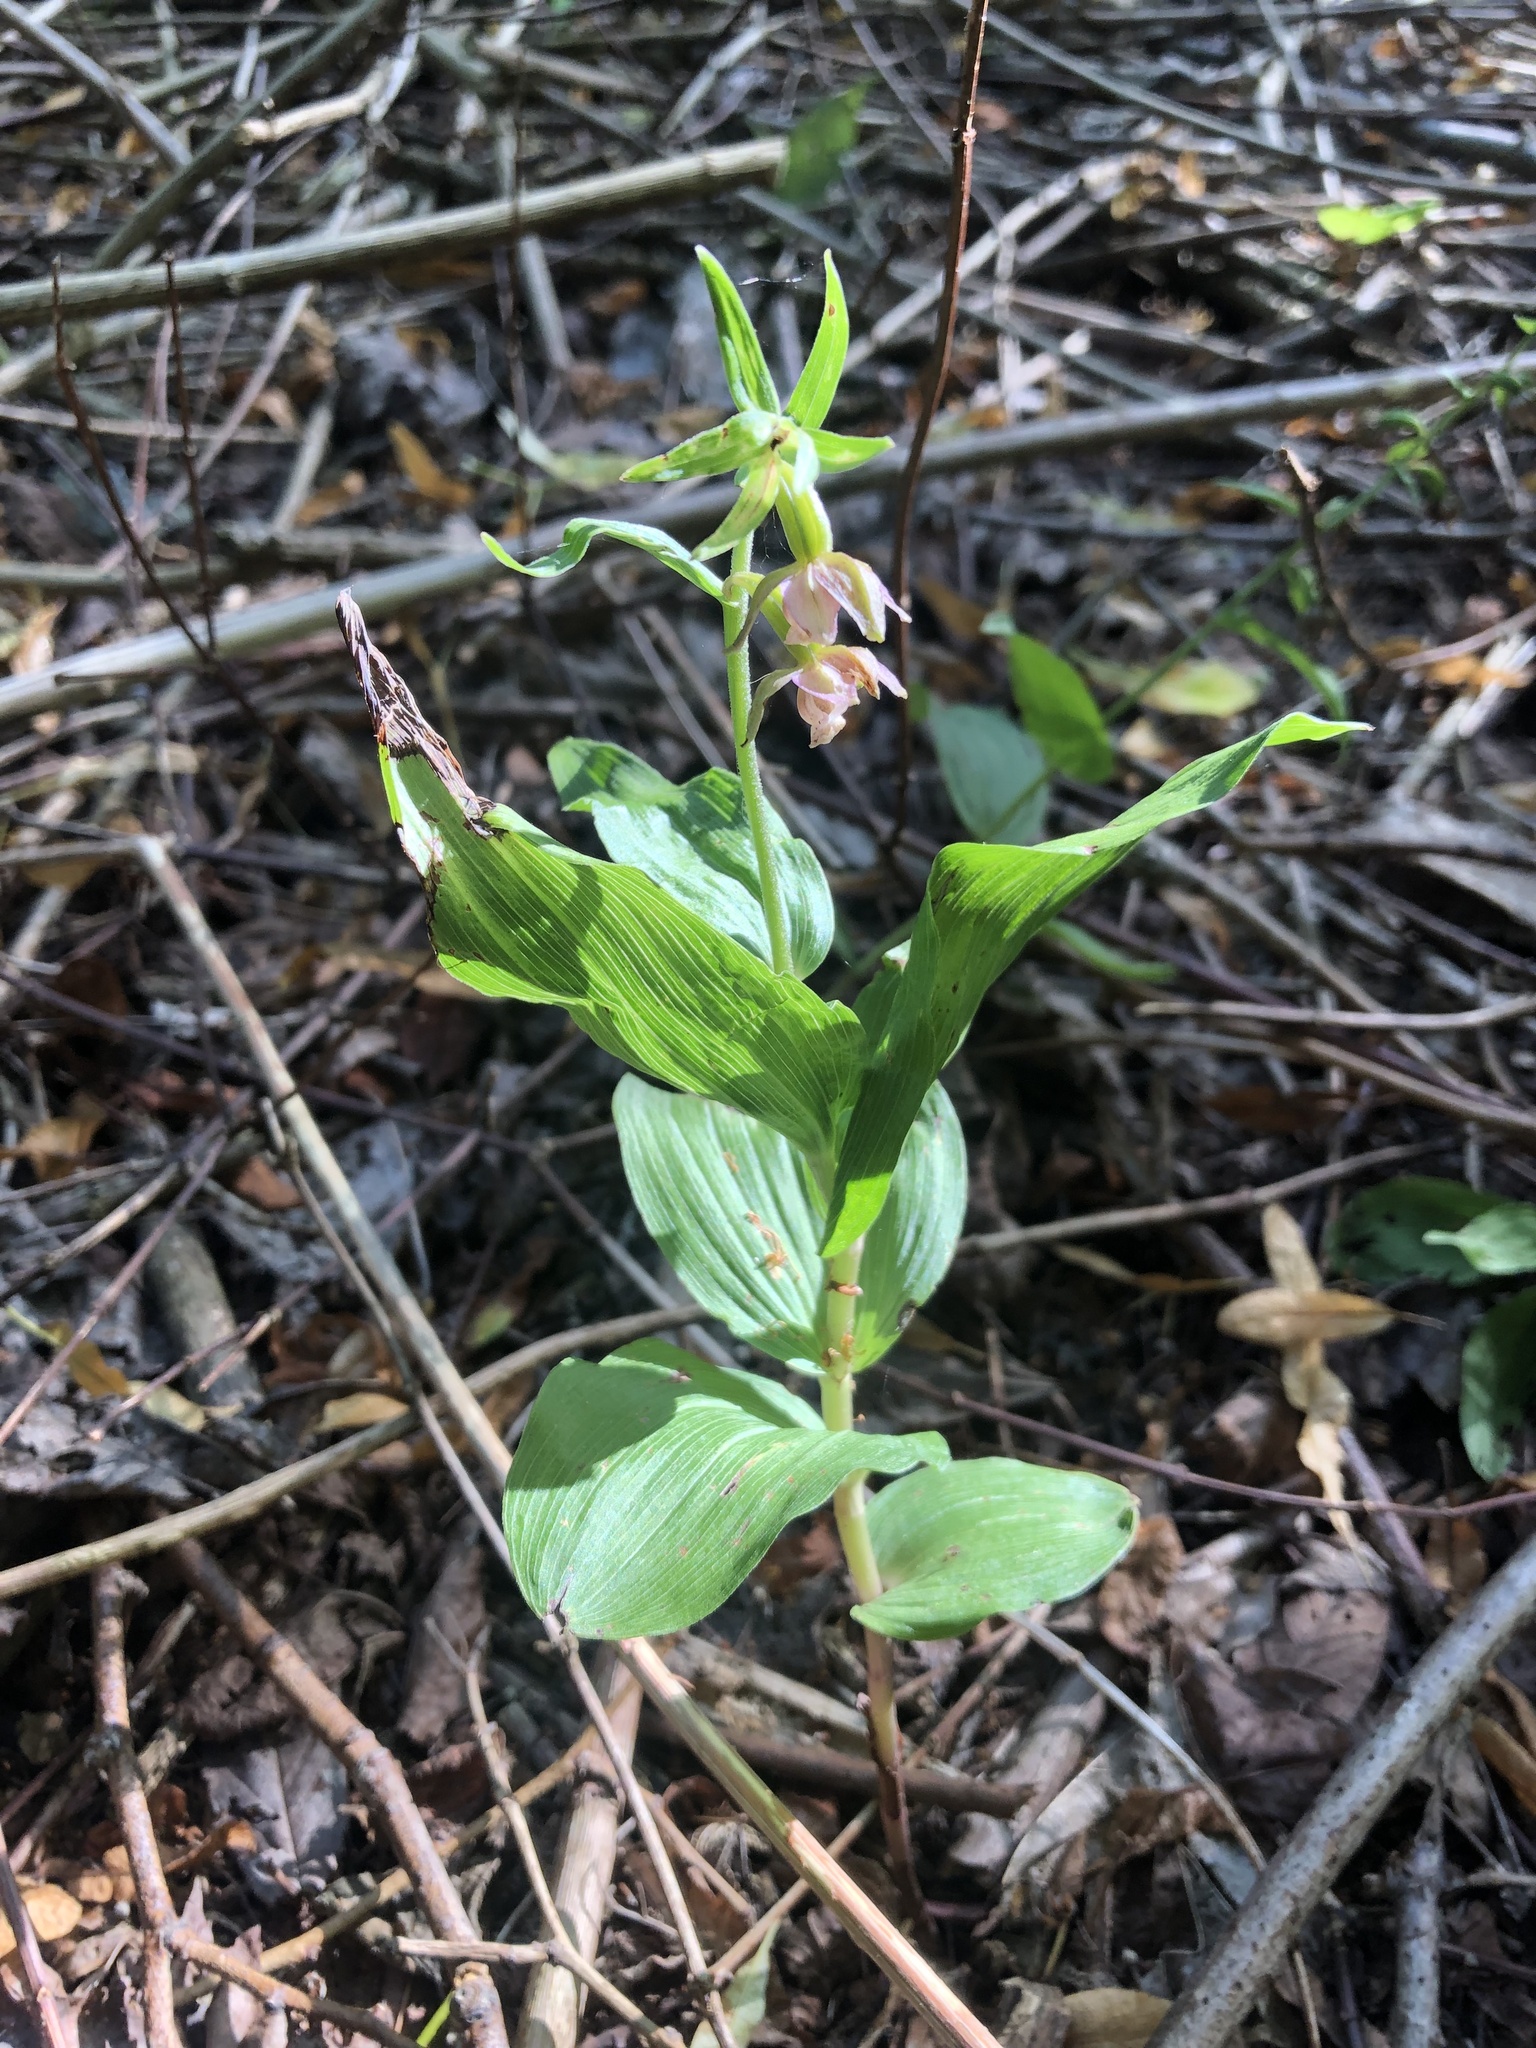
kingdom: Plantae
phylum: Tracheophyta
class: Liliopsida
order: Asparagales
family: Orchidaceae
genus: Epipactis
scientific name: Epipactis helleborine
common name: Broad-leaved helleborine
